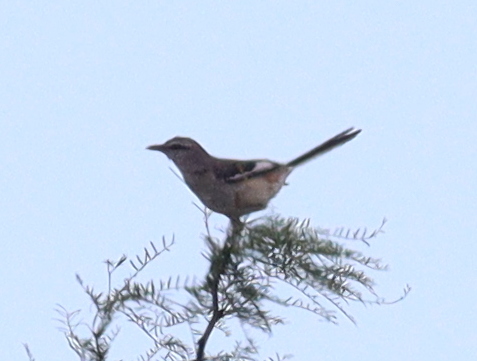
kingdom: Animalia
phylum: Chordata
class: Aves
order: Passeriformes
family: Mimidae
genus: Mimus
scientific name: Mimus triurus
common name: White-banded mockingbird
